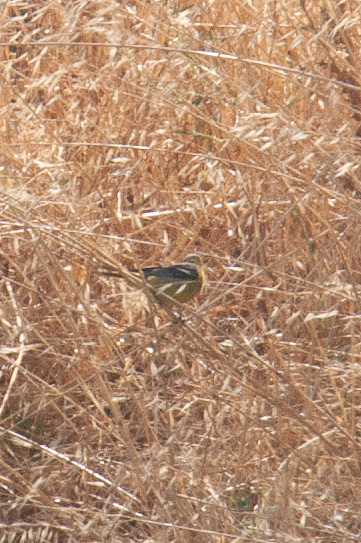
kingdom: Animalia
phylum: Chordata
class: Aves
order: Passeriformes
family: Icteridae
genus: Icterus
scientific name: Icterus cucullatus
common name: Hooded oriole
